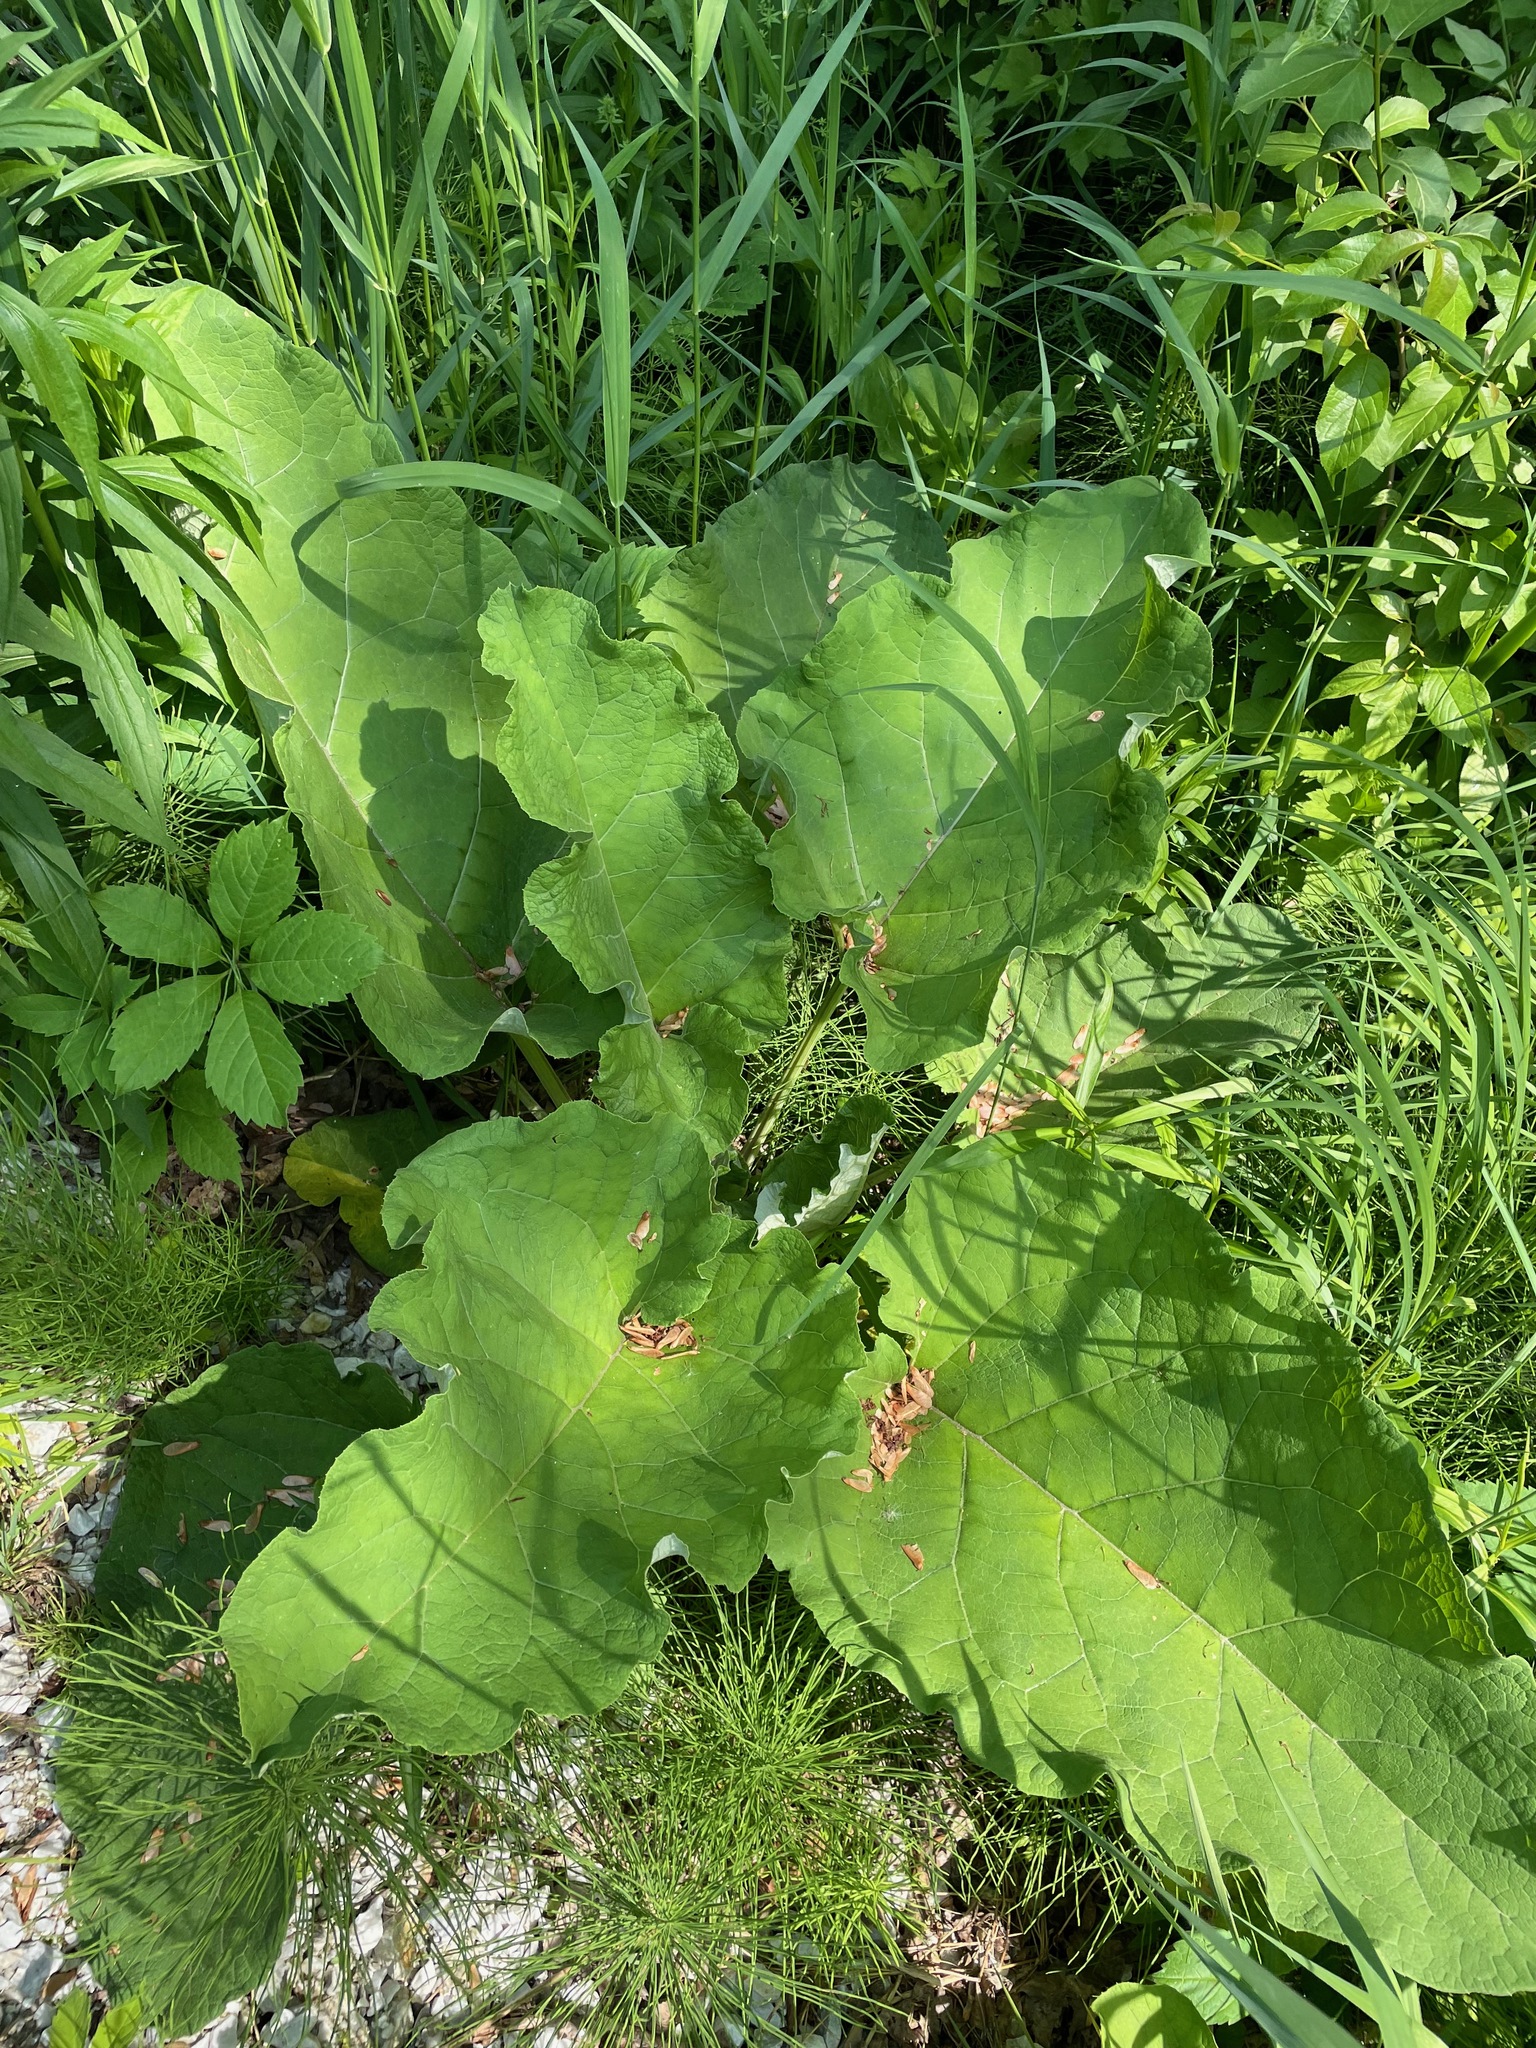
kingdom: Plantae
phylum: Tracheophyta
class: Magnoliopsida
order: Asterales
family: Asteraceae
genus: Arctium
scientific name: Arctium
